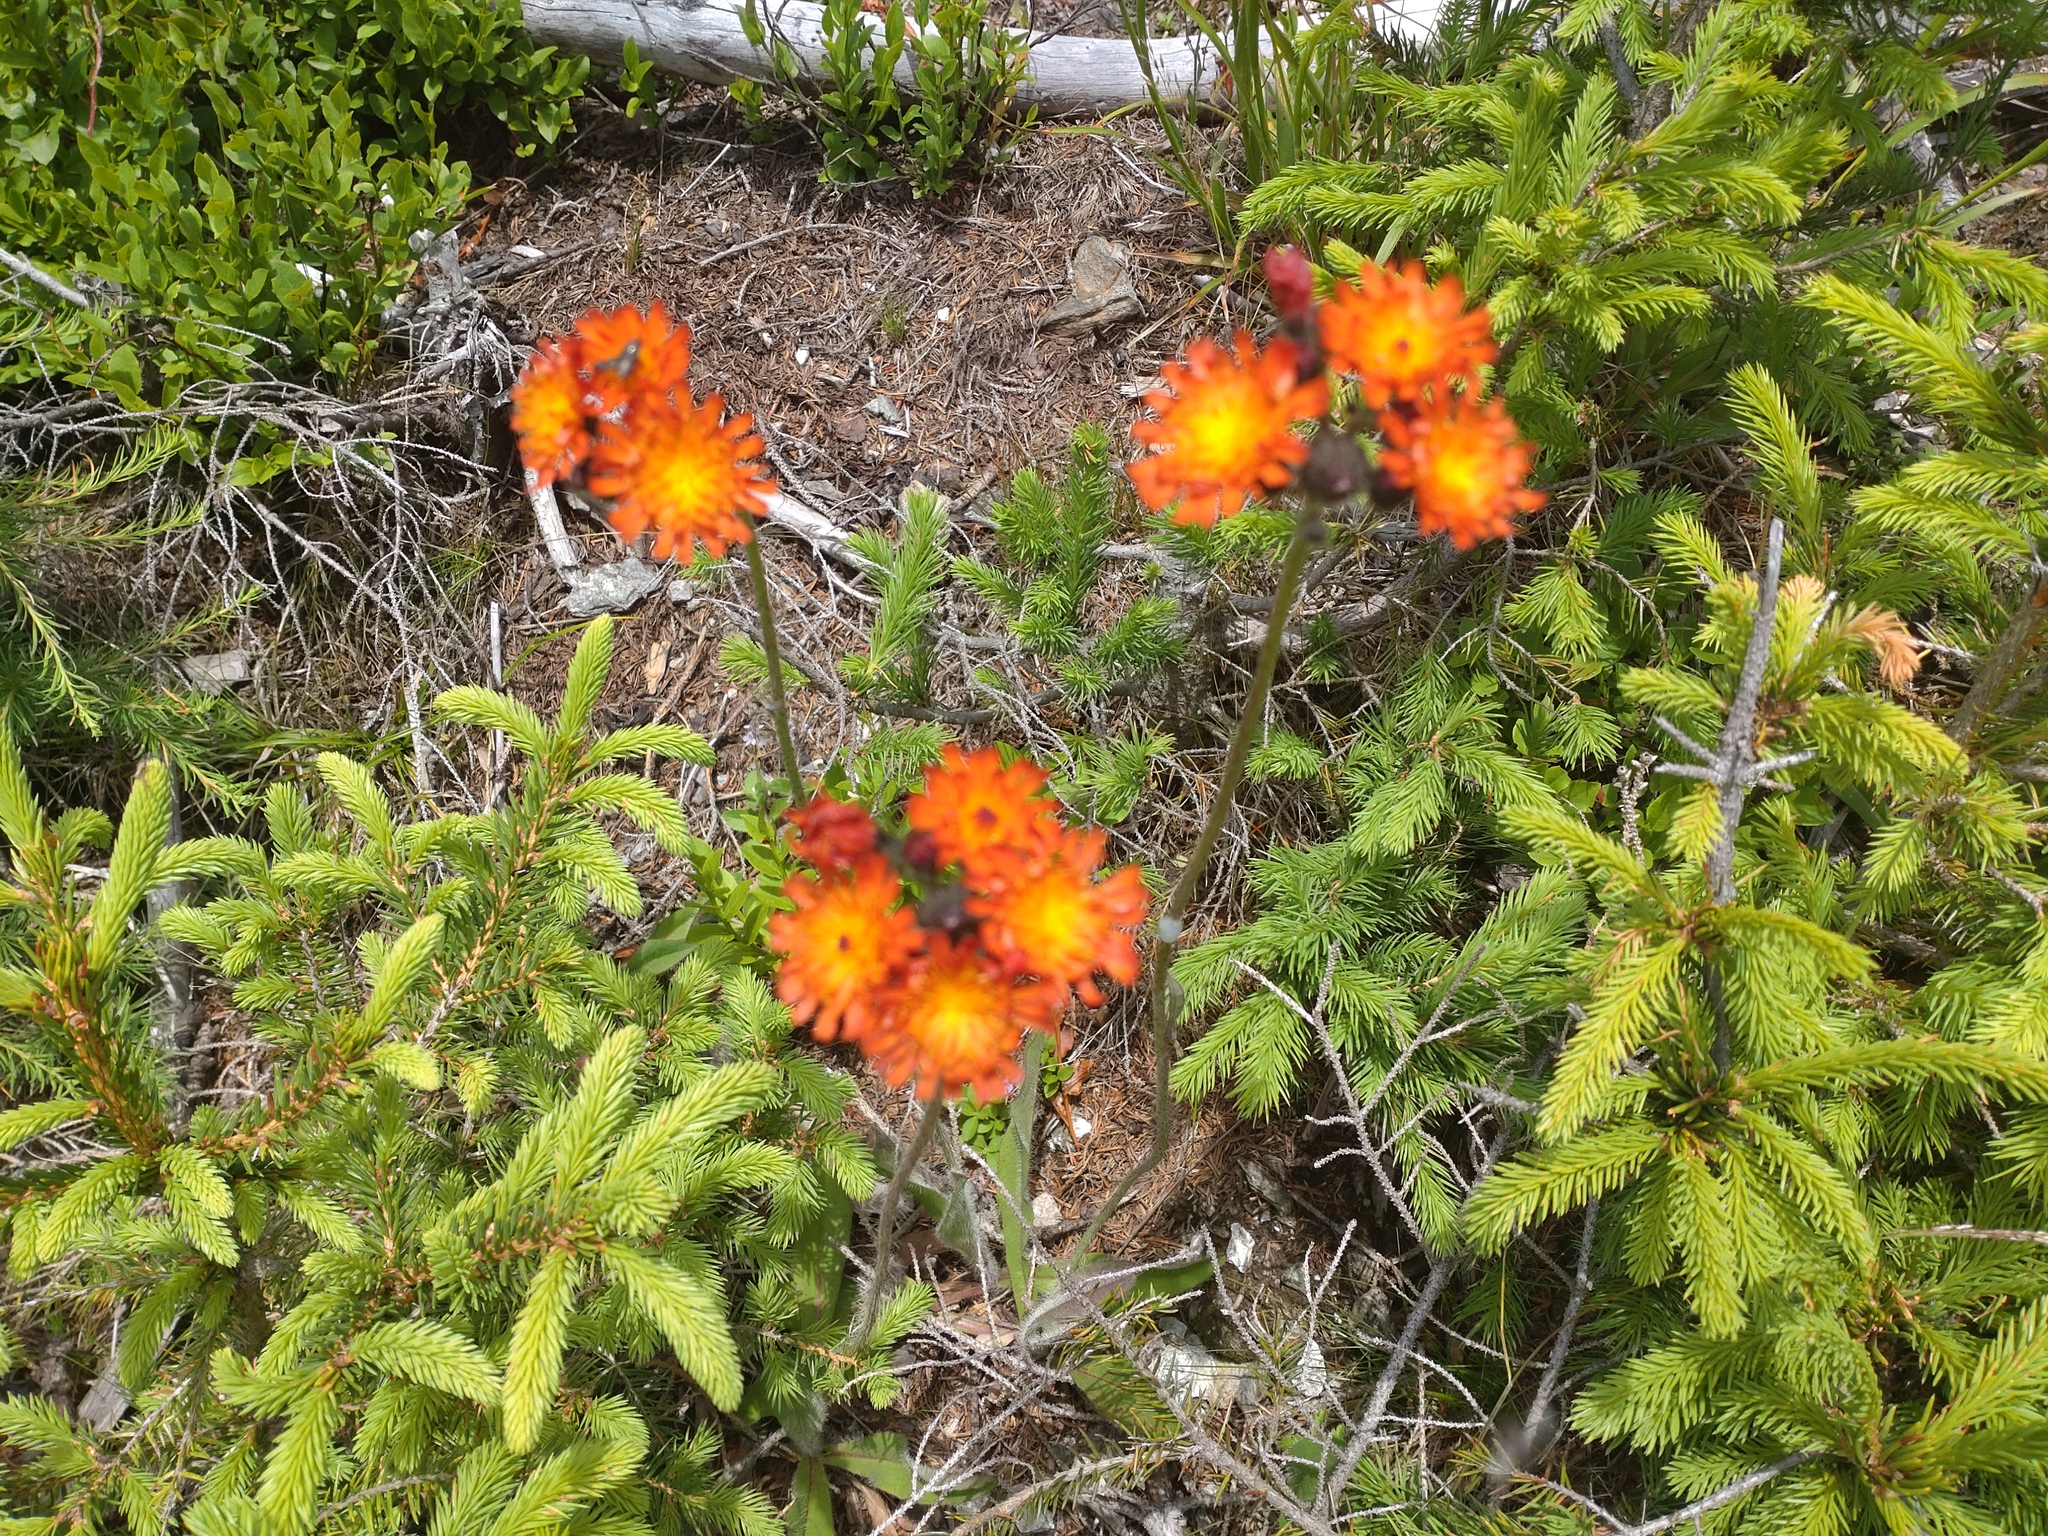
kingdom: Plantae
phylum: Tracheophyta
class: Magnoliopsida
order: Asterales
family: Asteraceae
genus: Pilosella
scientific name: Pilosella aurantiaca
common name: Fox-and-cubs
